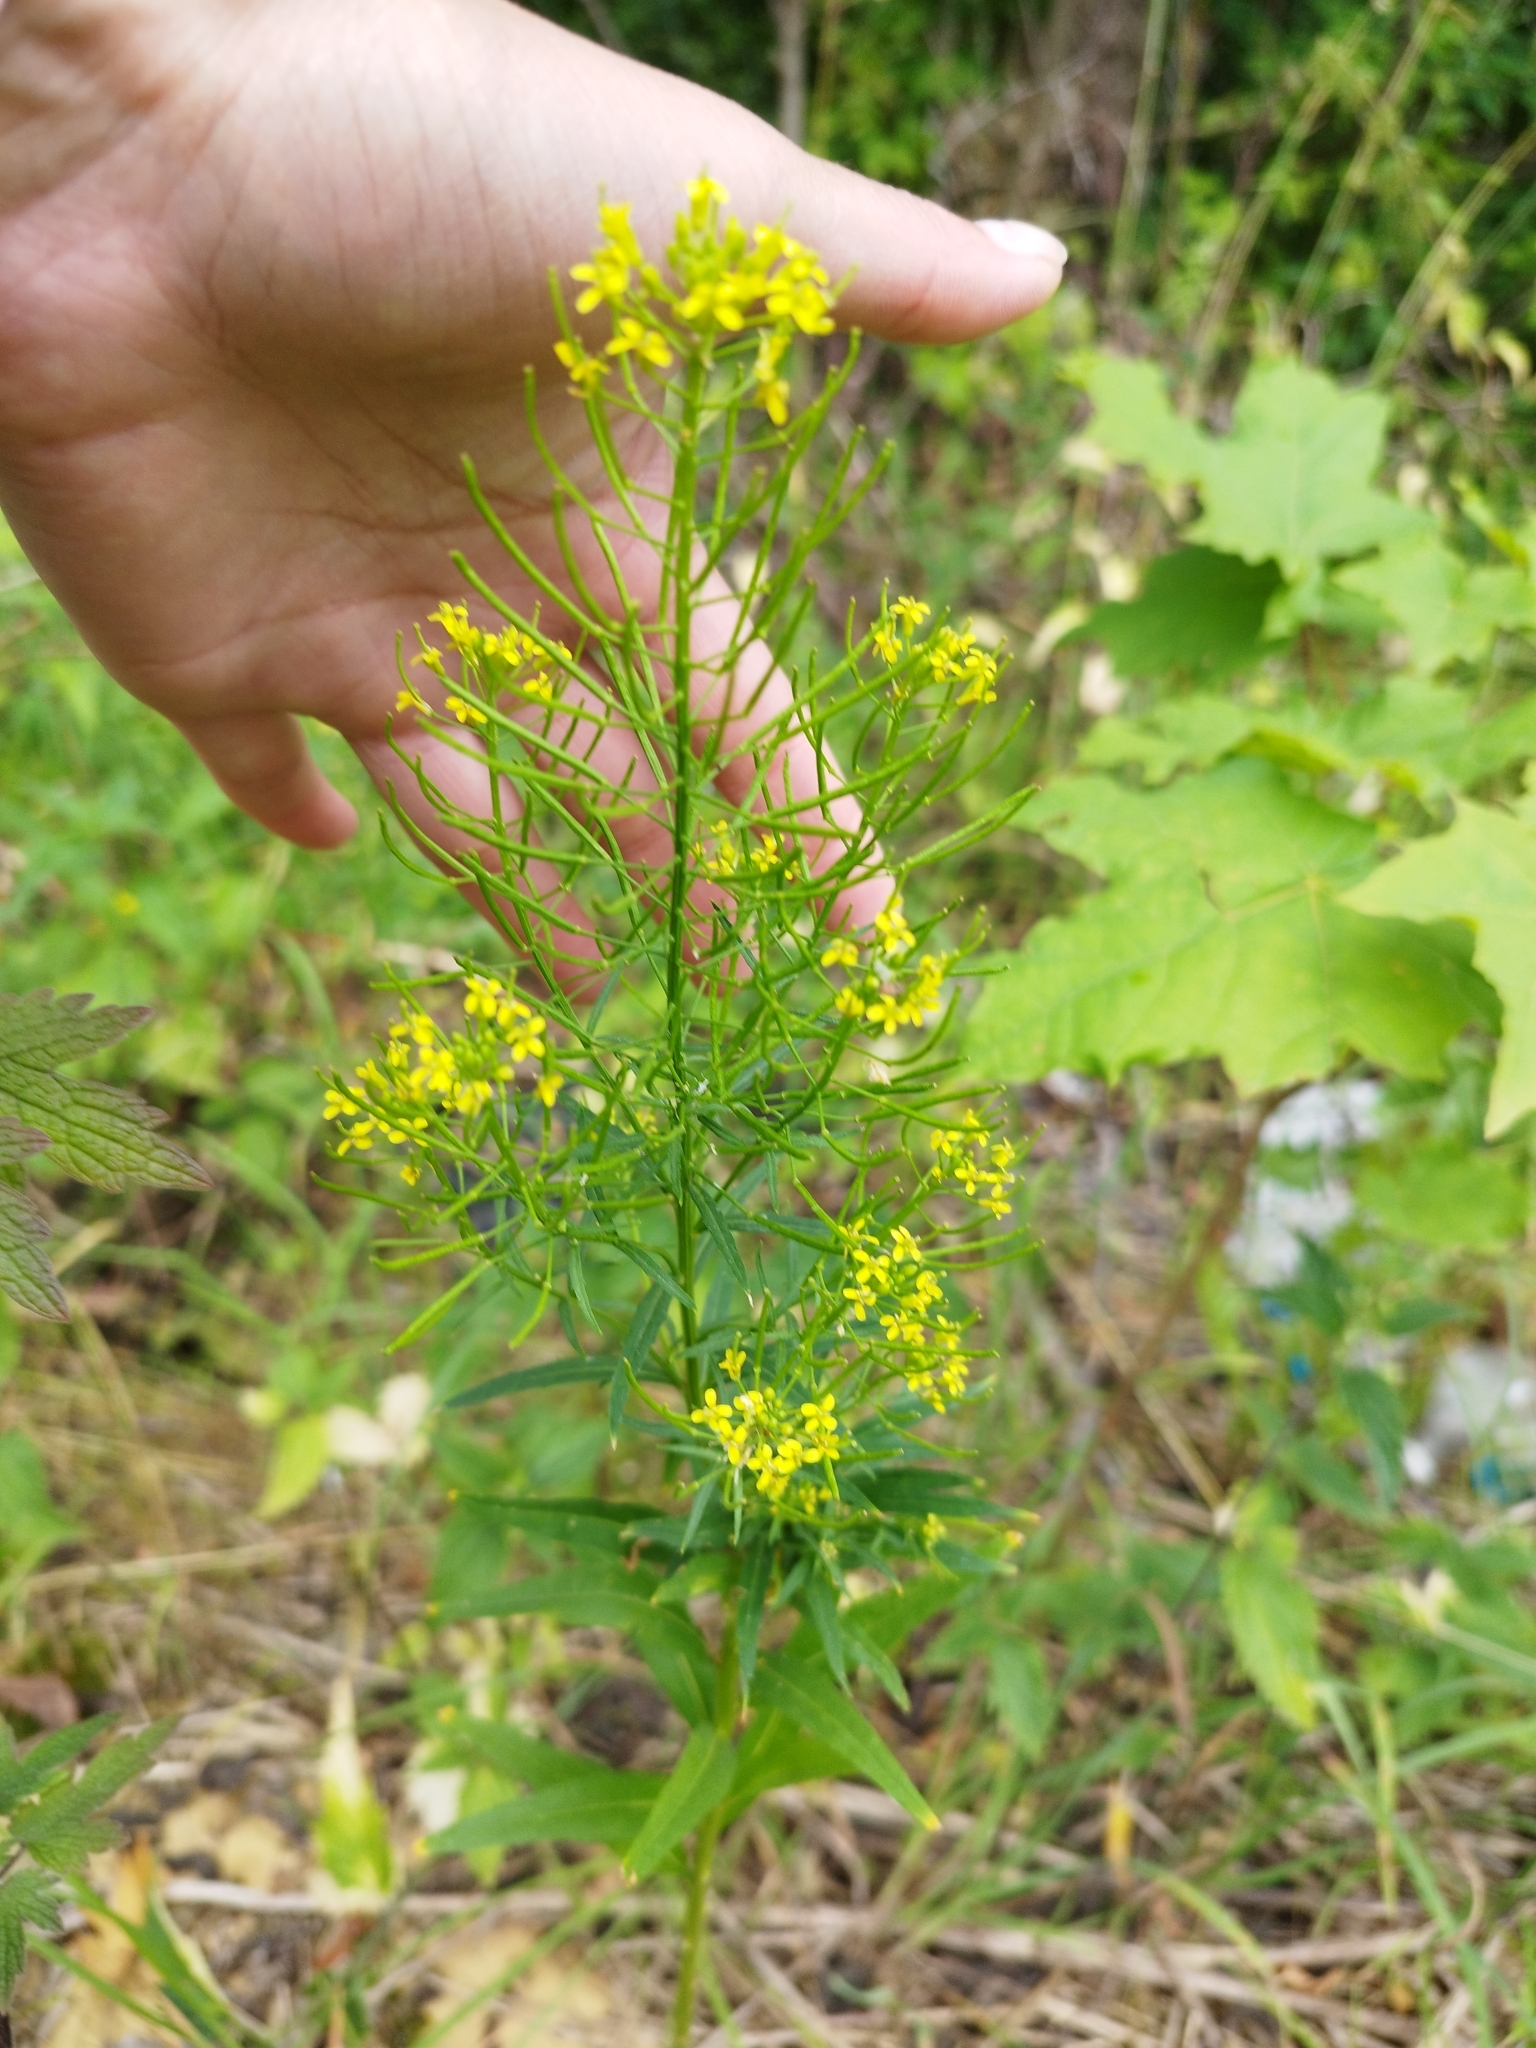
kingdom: Plantae
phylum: Tracheophyta
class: Magnoliopsida
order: Brassicales
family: Brassicaceae
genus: Erysimum
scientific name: Erysimum cheiranthoides
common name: Treacle mustard
